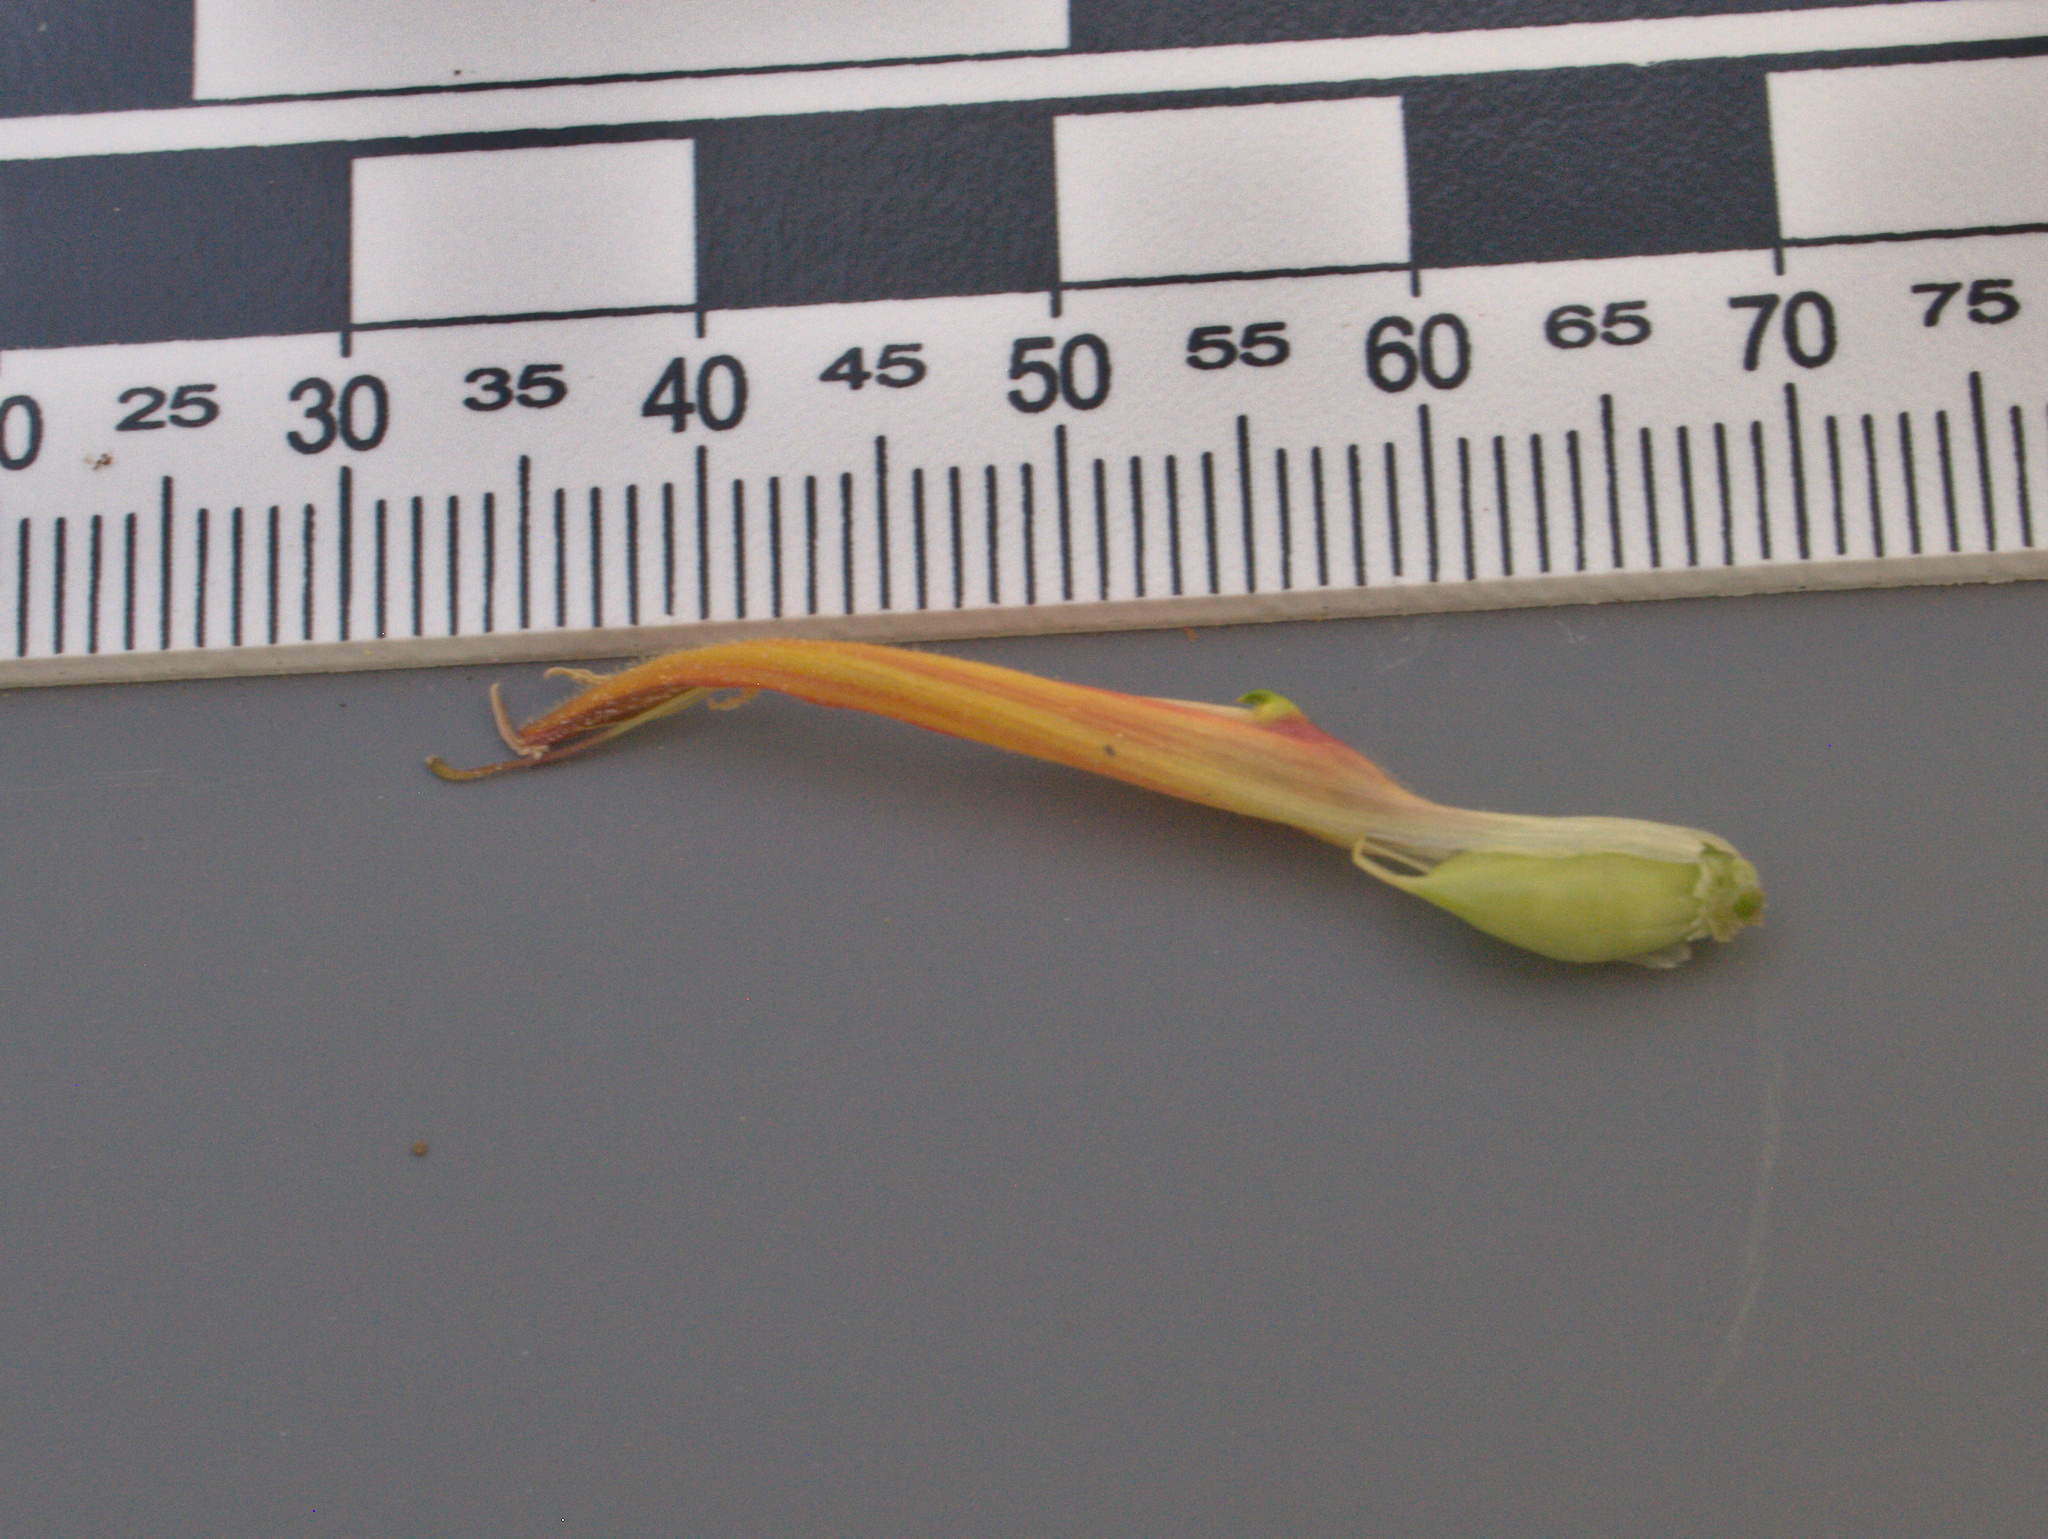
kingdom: Plantae
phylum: Tracheophyta
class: Magnoliopsida
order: Lamiales
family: Orobanchaceae
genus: Castilleja
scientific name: Castilleja applegatei
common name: Wavy-leaf paintbrush
